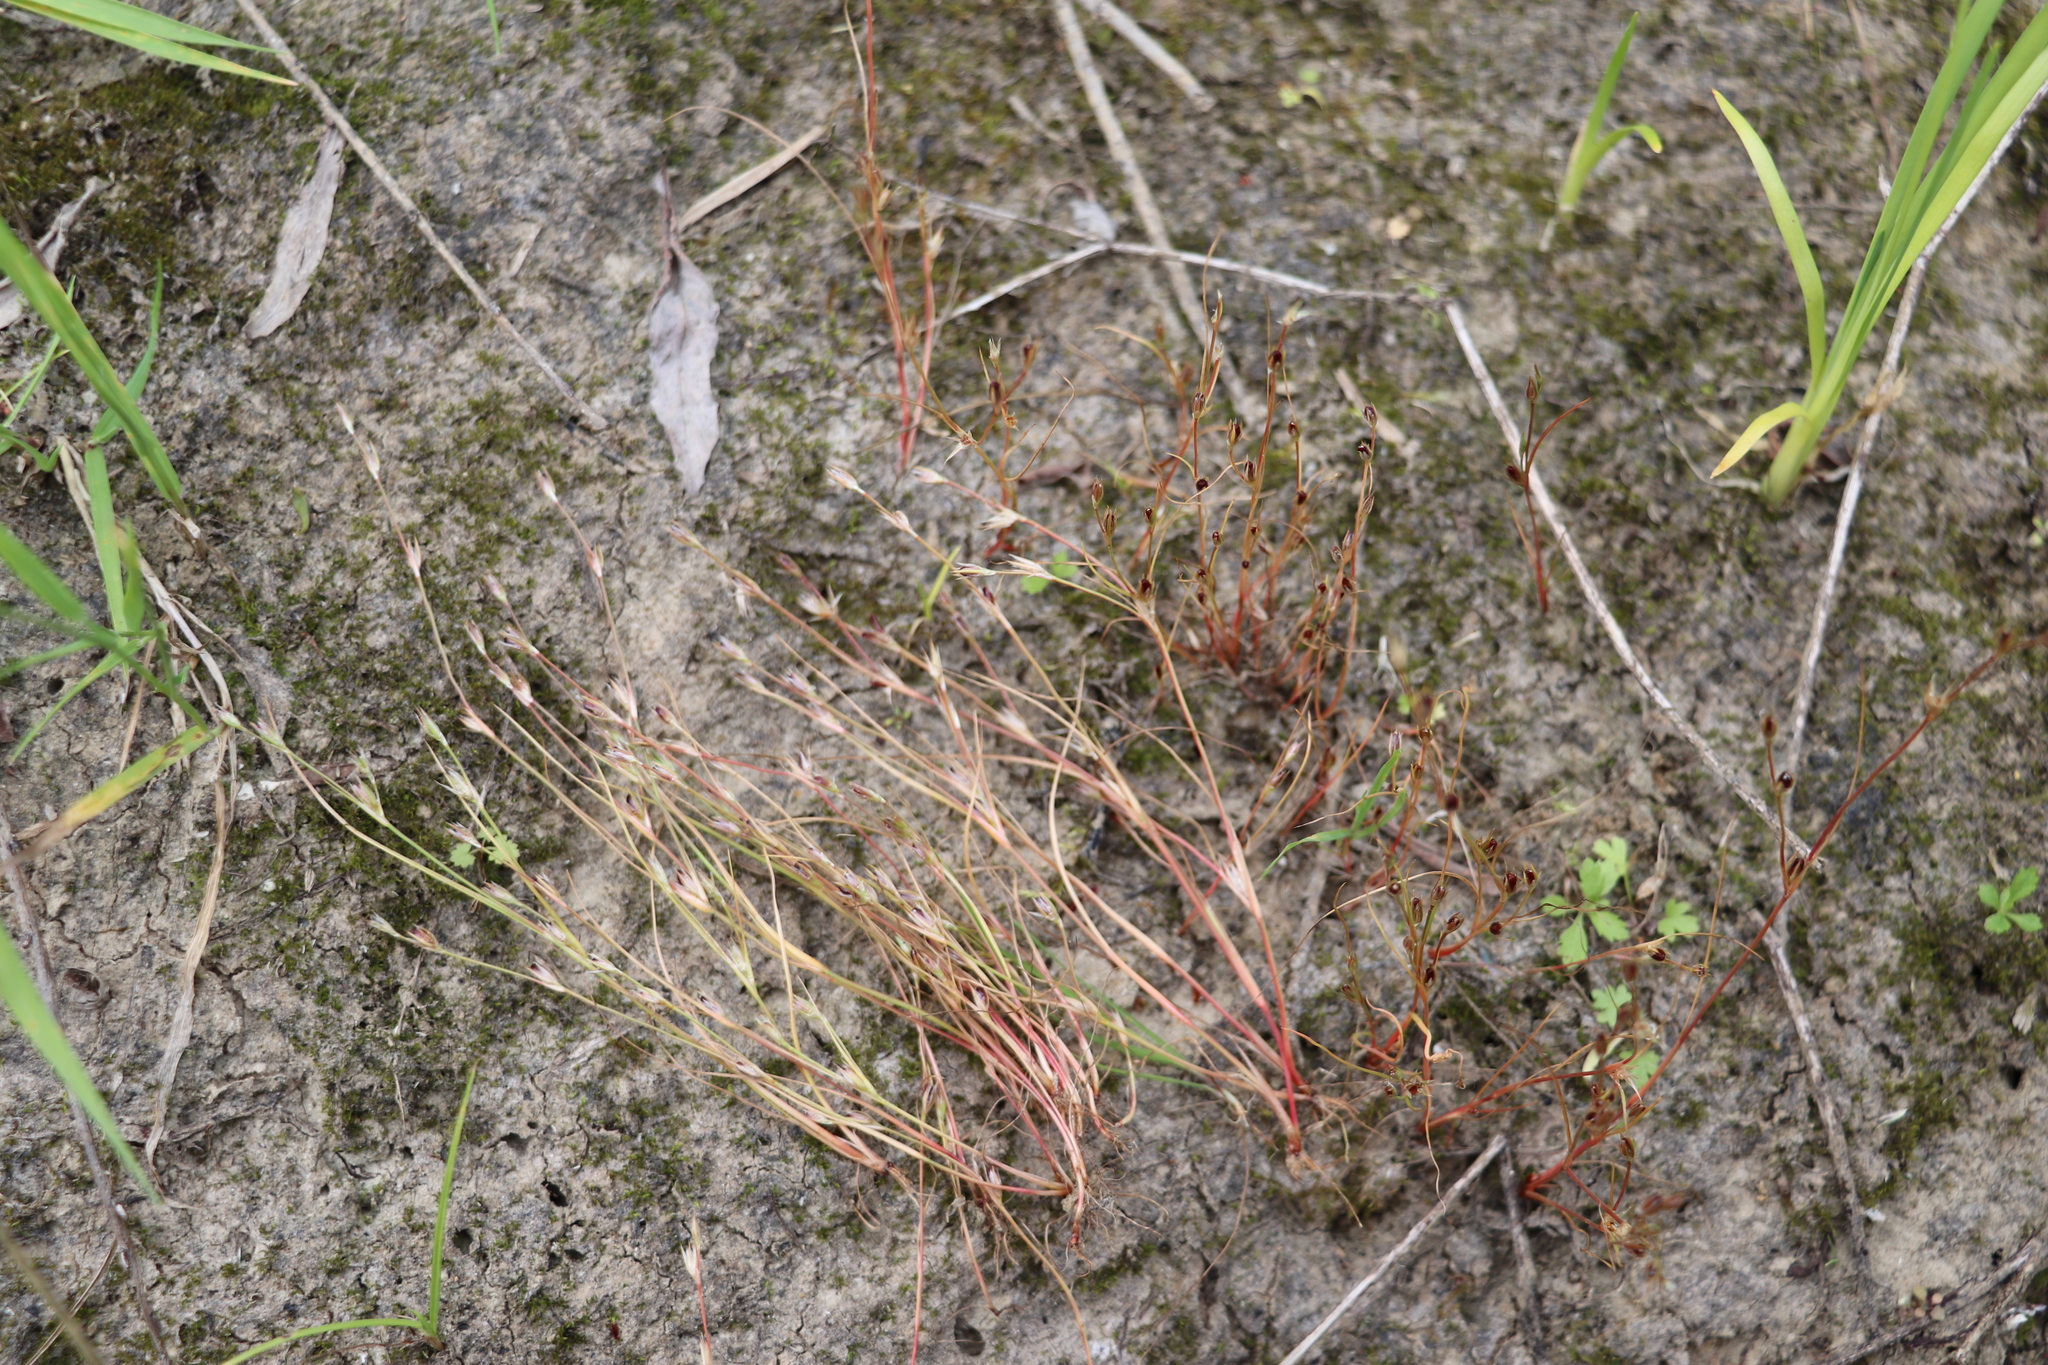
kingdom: Plantae
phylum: Tracheophyta
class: Liliopsida
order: Poales
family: Juncaceae
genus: Juncus
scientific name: Juncus bufonius
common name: Toad rush
